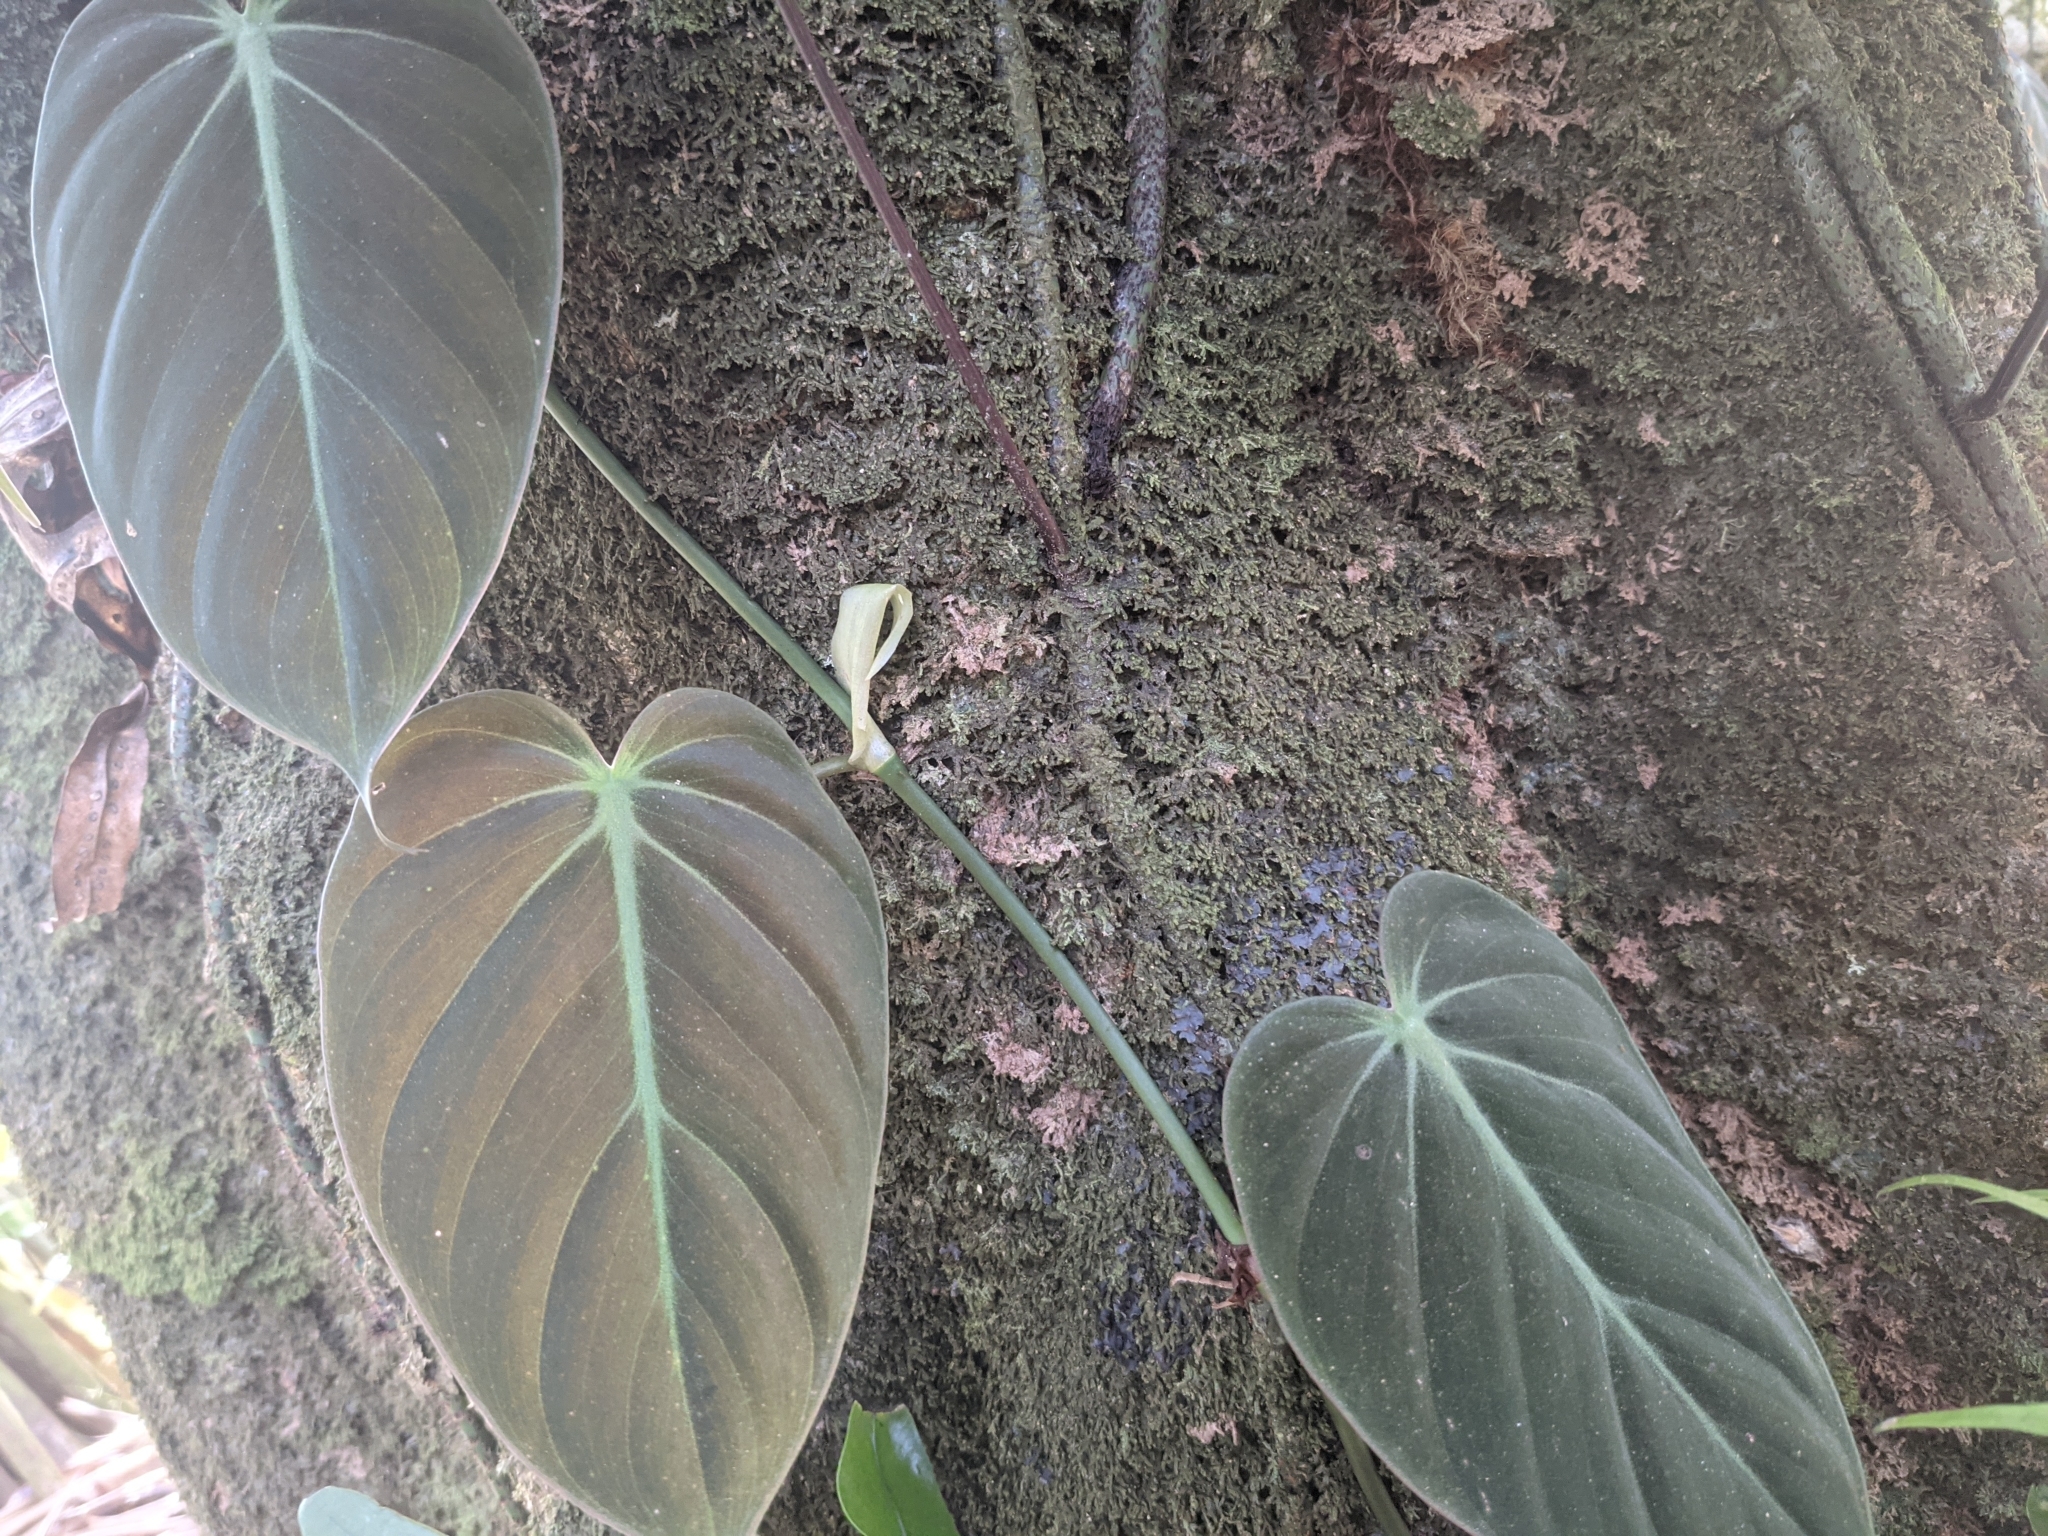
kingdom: Plantae
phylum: Tracheophyta
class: Liliopsida
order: Alismatales
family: Araceae
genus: Philodendron
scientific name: Philodendron hederaceum
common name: Vilevine
